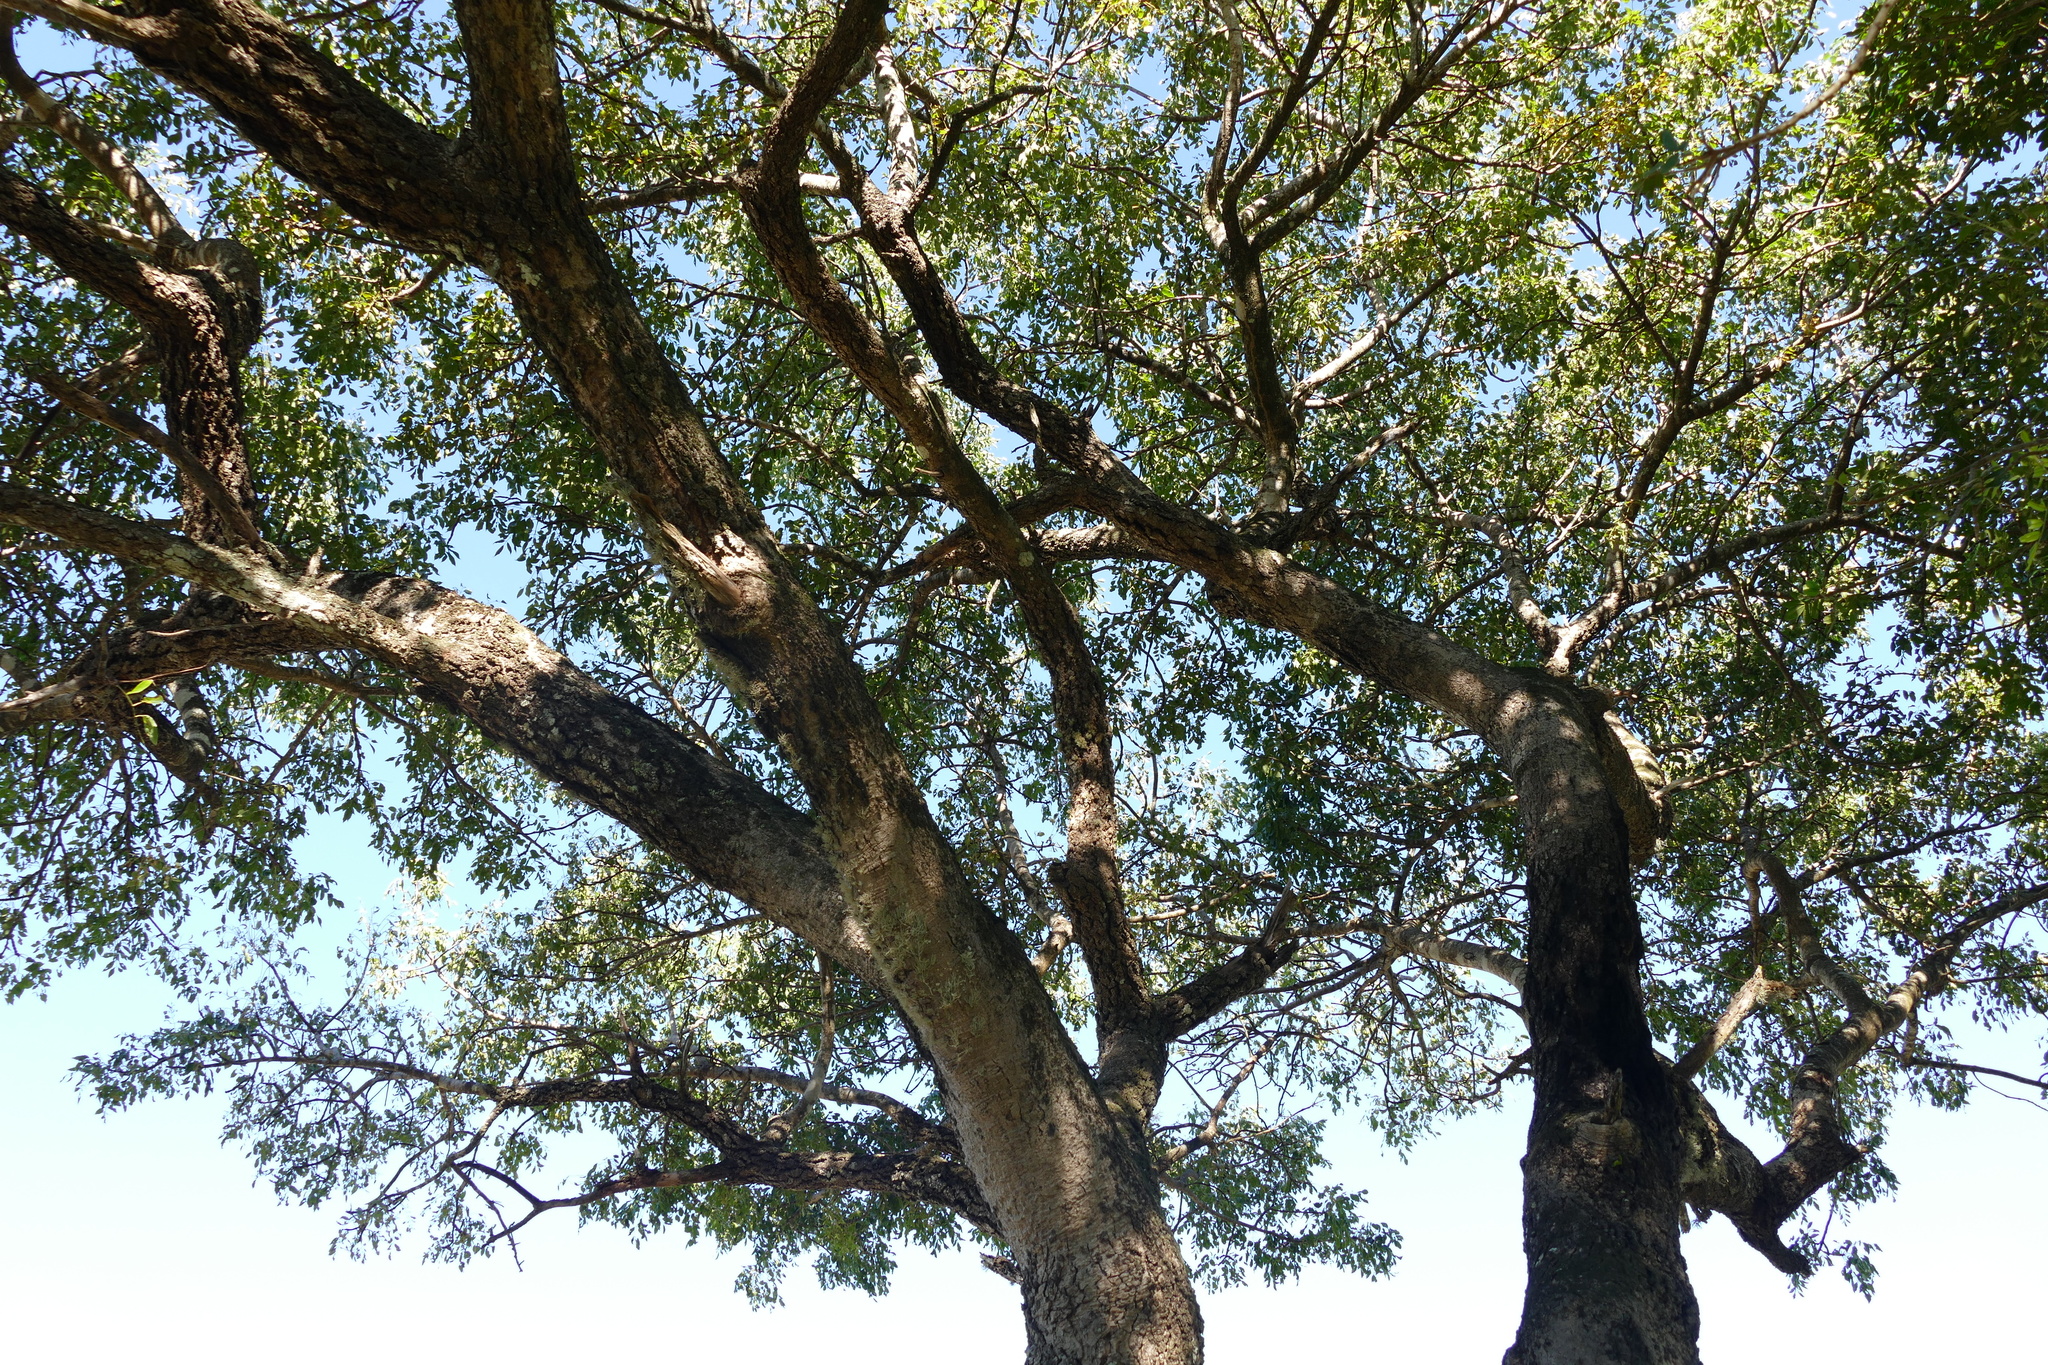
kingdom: Plantae
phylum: Tracheophyta
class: Magnoliopsida
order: Sapindales
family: Anacardiaceae
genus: Sclerocarya
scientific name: Sclerocarya birrea
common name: Marula
